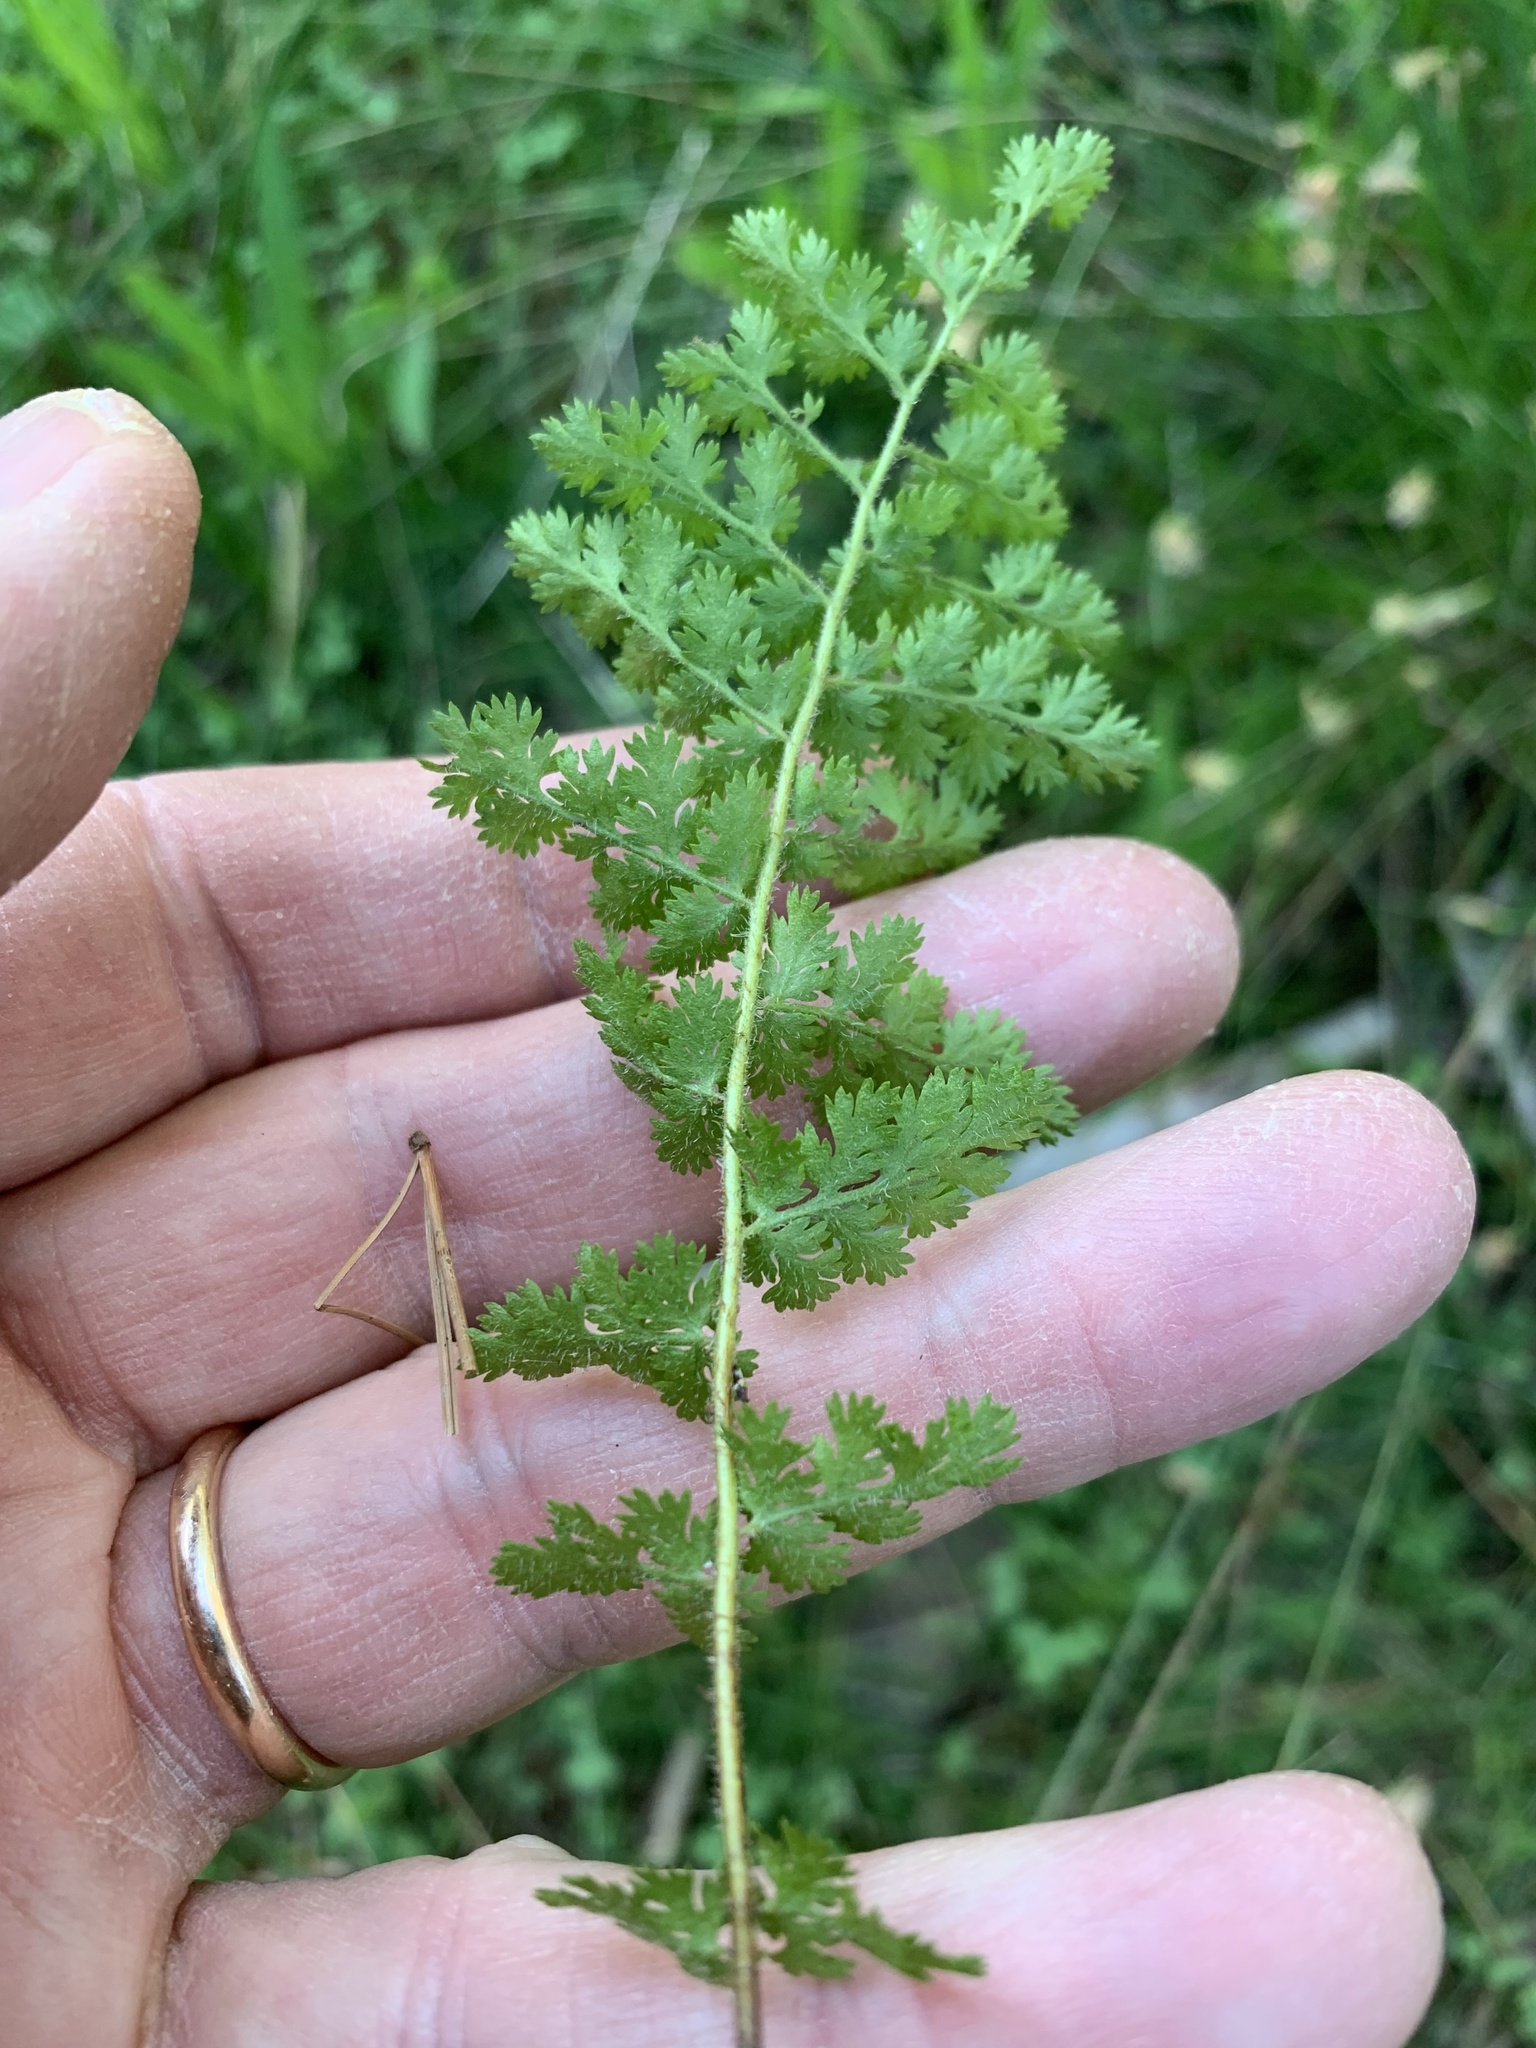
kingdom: Plantae
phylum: Tracheophyta
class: Polypodiopsida
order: Schizaeales
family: Anemiaceae
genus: Anemia
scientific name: Anemia caffrorum
